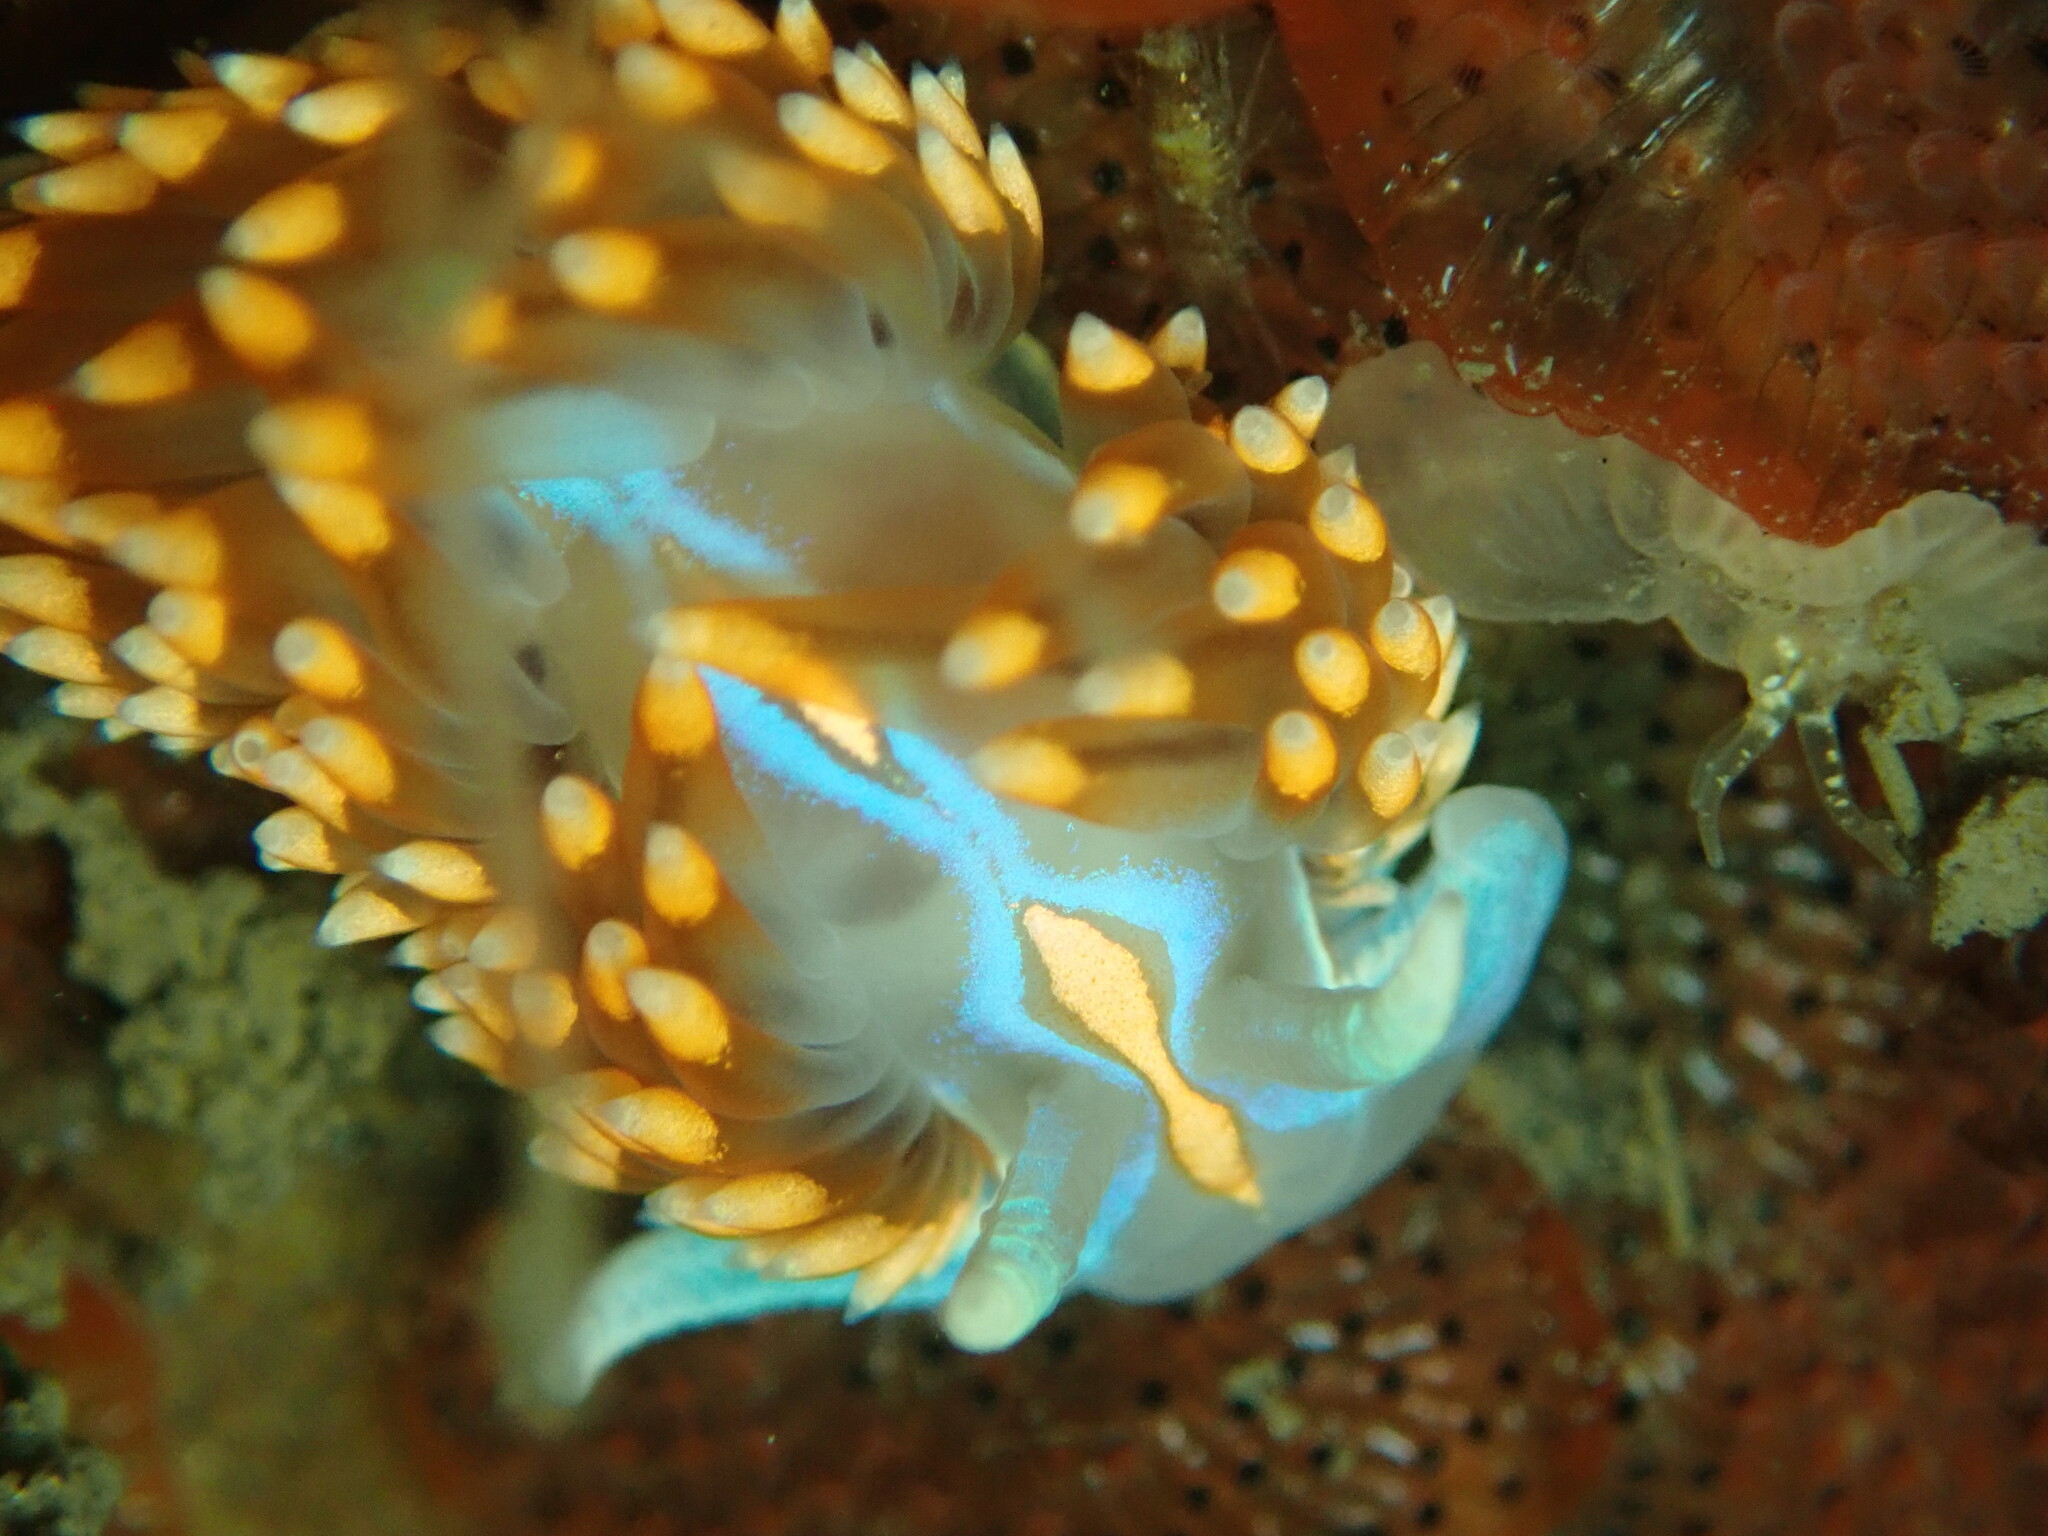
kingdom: Animalia
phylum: Mollusca
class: Gastropoda
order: Nudibranchia
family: Myrrhinidae
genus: Hermissenda
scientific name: Hermissenda opalescens
